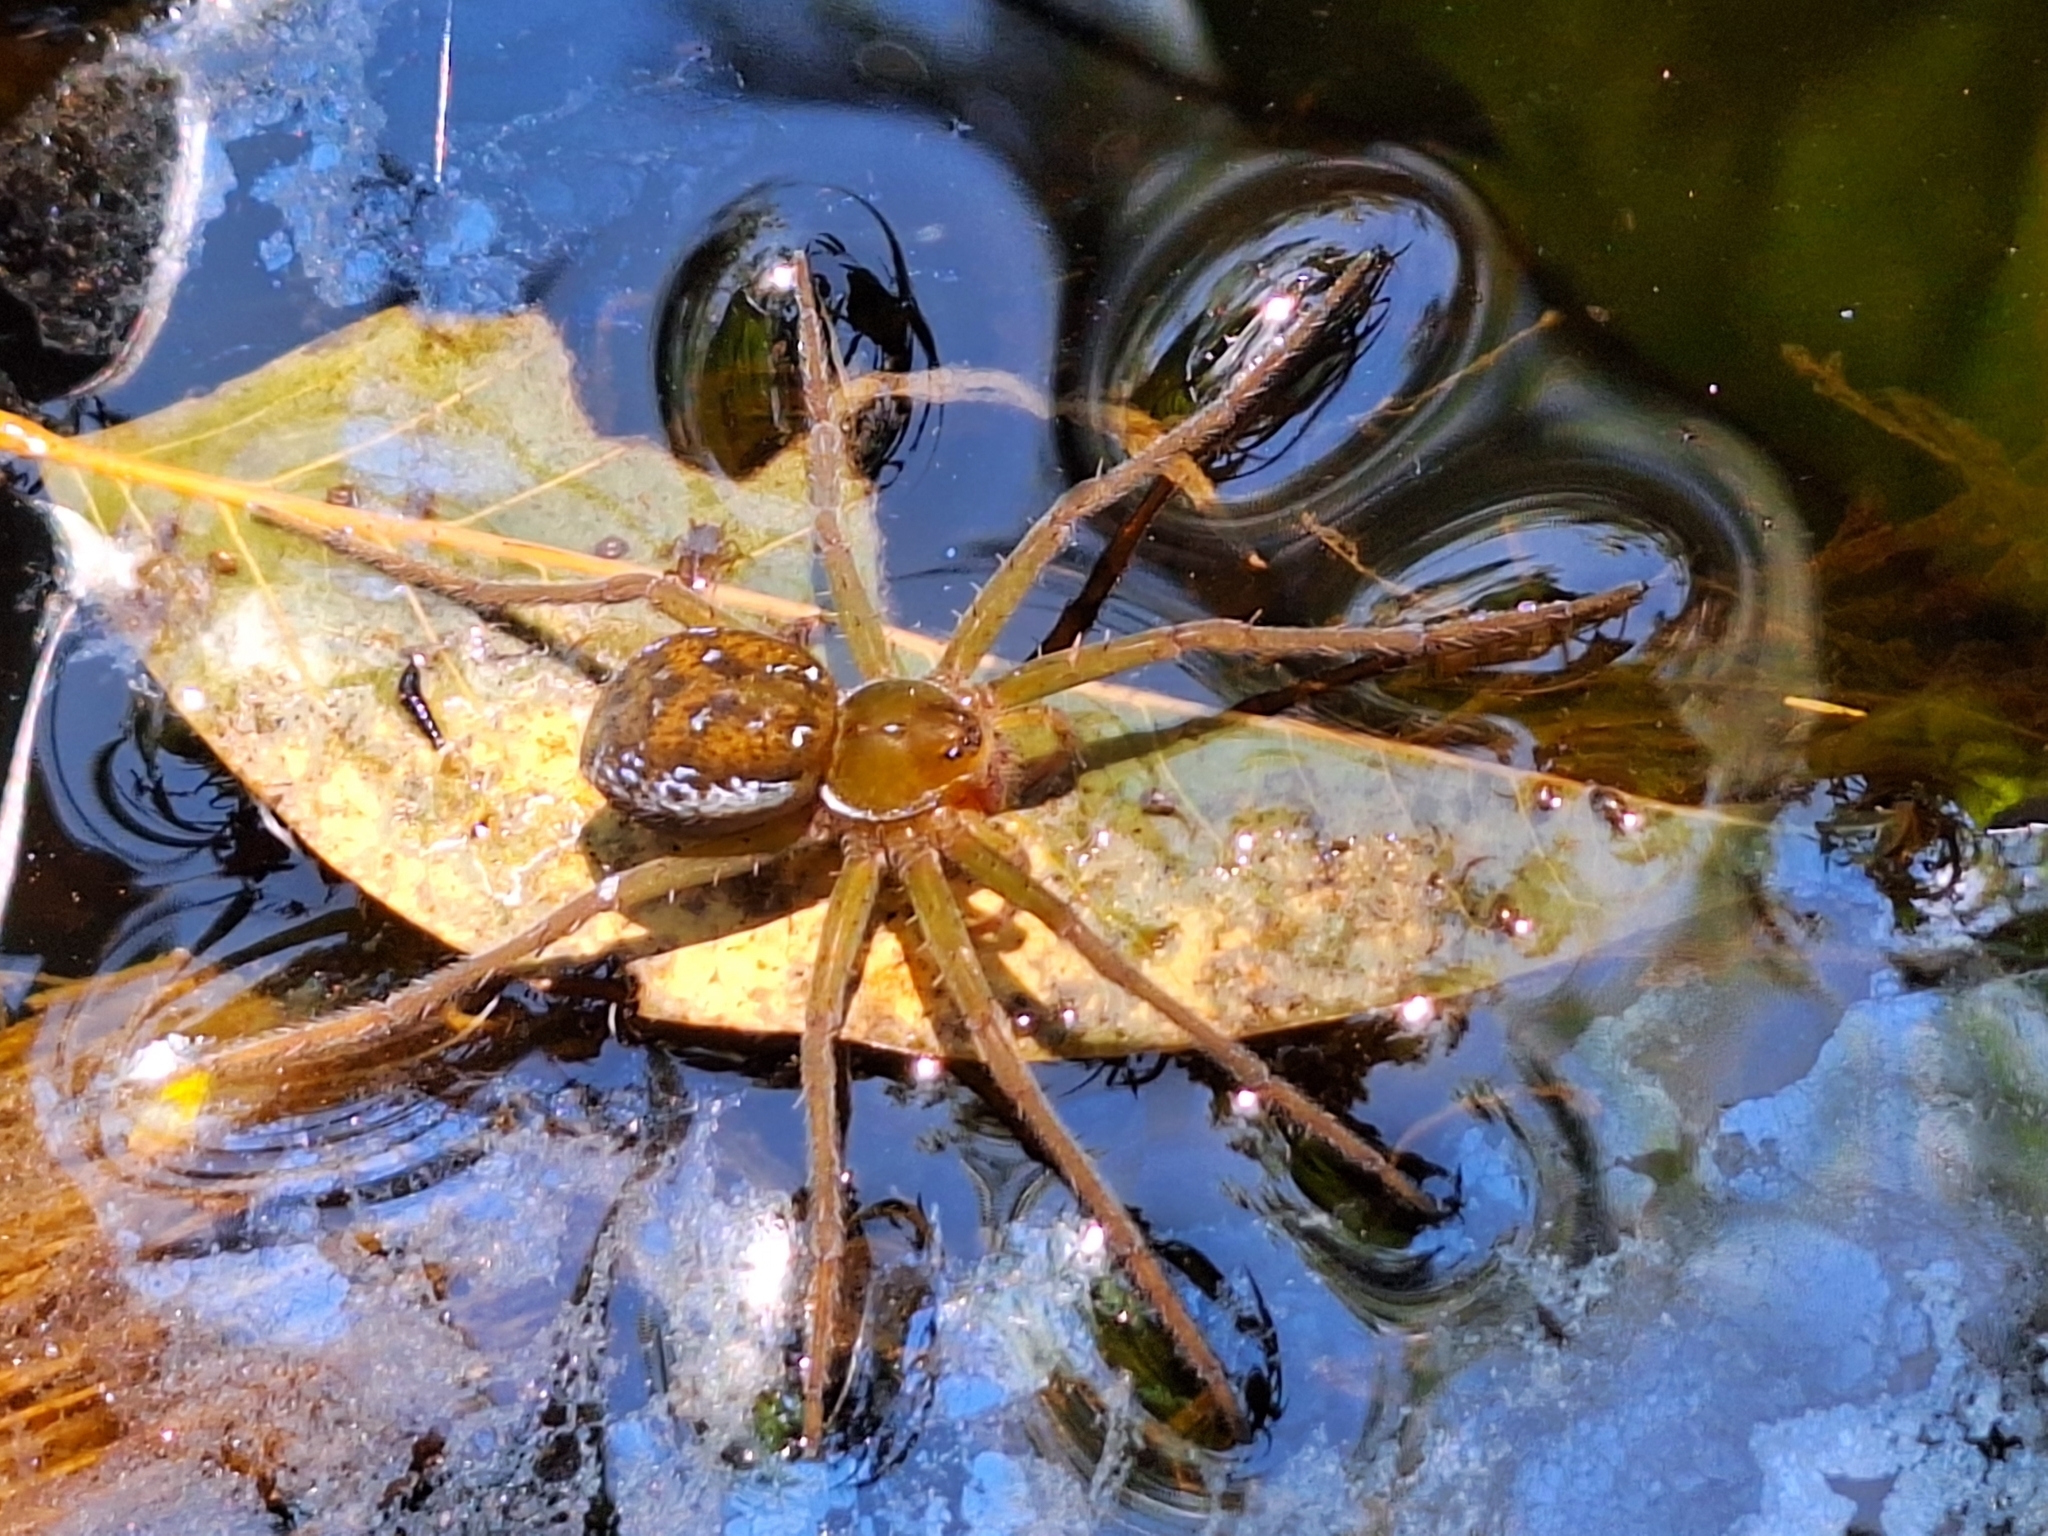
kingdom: Animalia
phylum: Arthropoda
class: Arachnida
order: Araneae
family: Pisauridae
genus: Thaumasia
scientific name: Thaumasia velox
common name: Nursery web spiders
